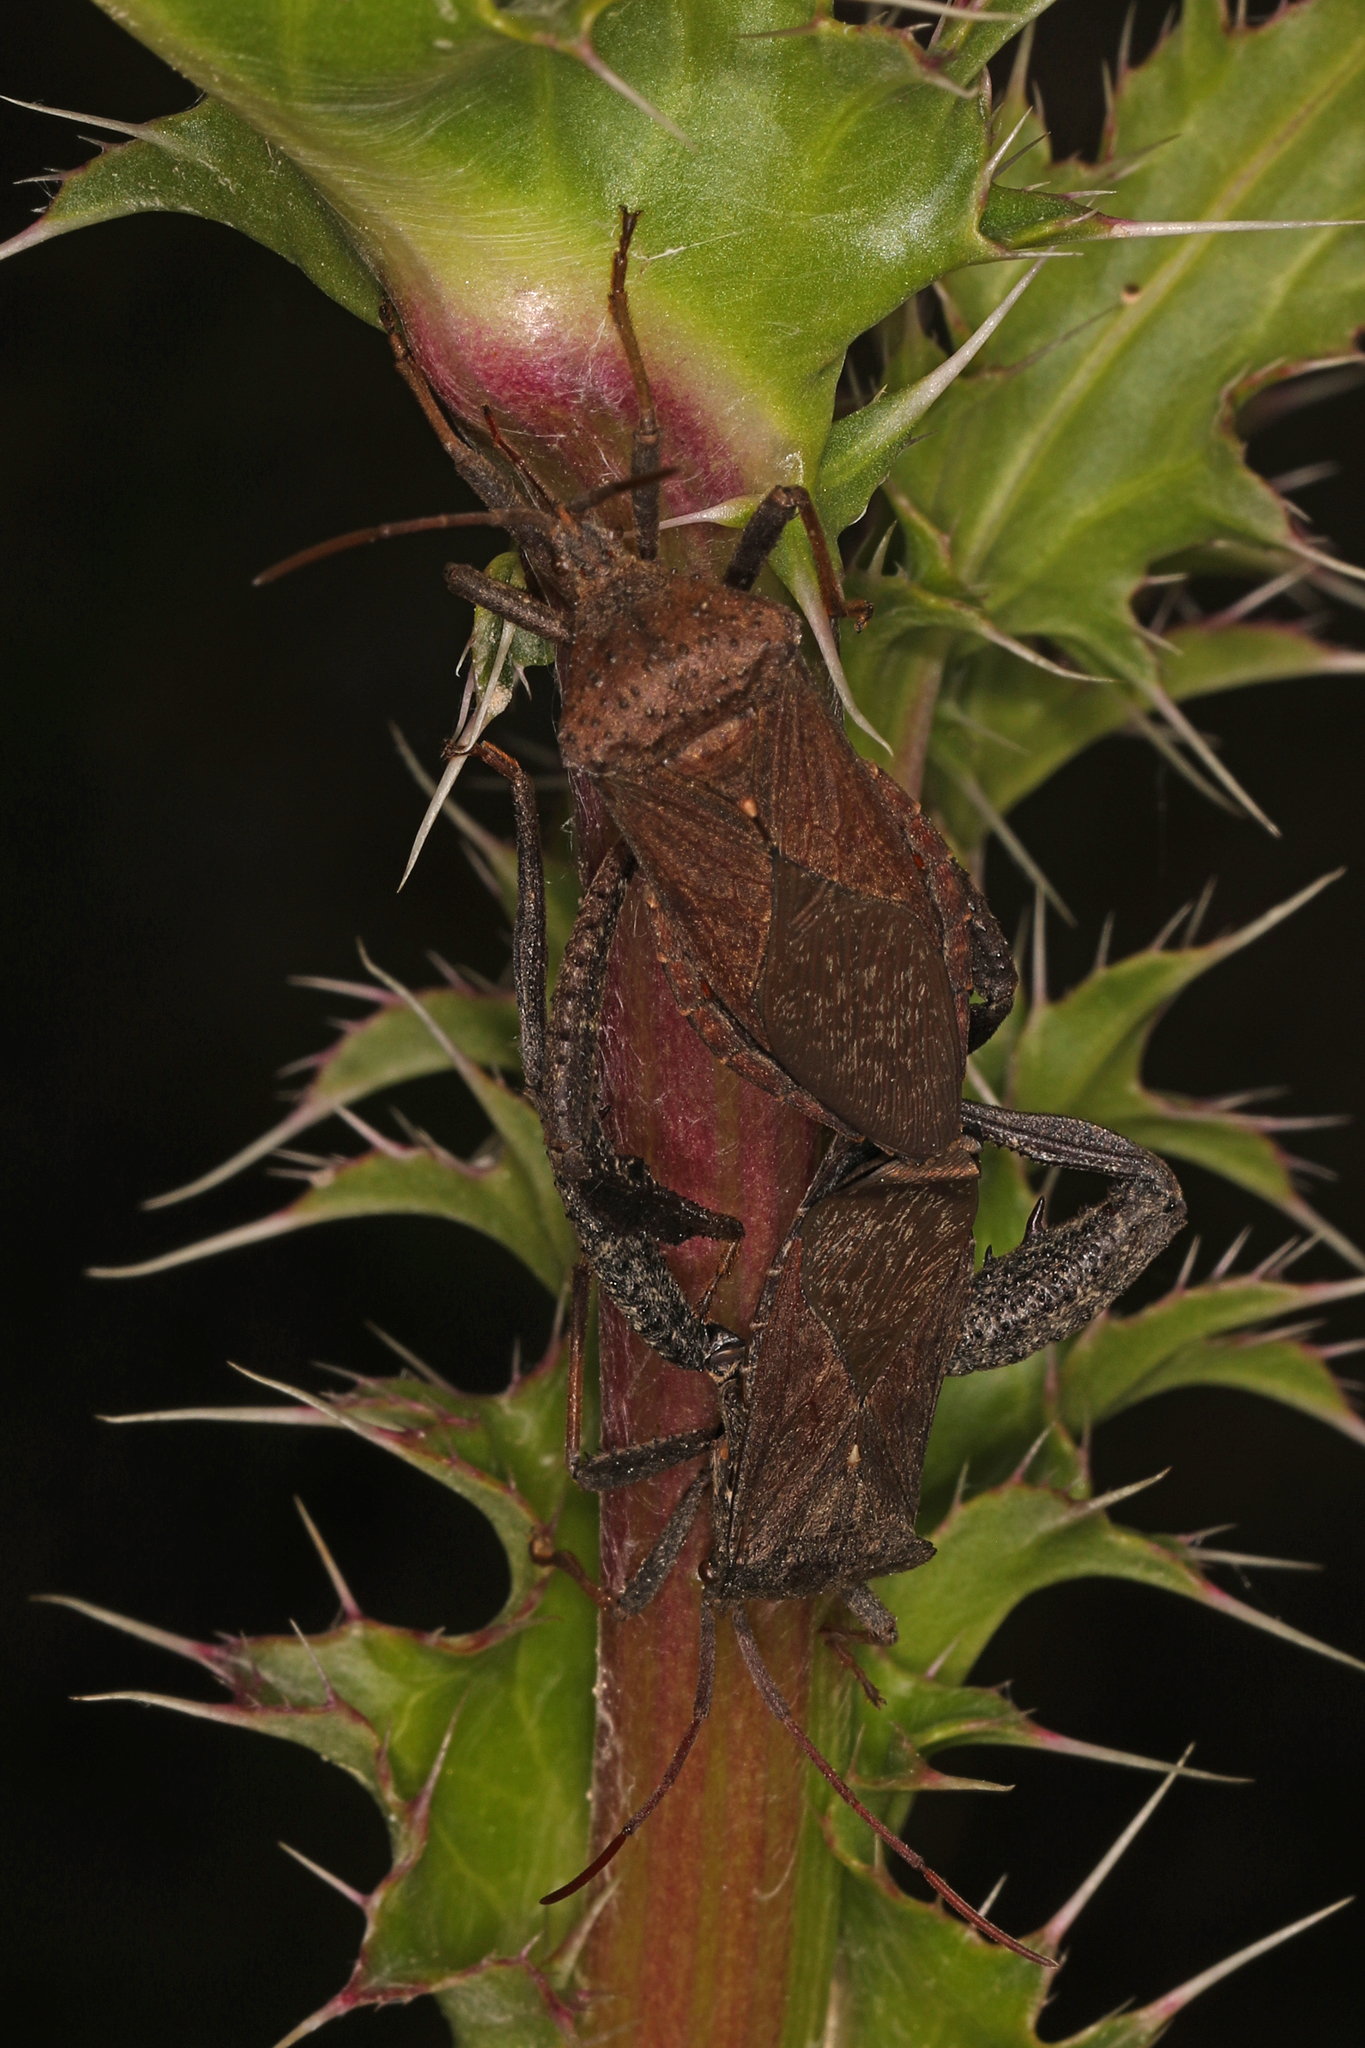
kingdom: Animalia
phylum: Arthropoda
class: Insecta
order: Hemiptera
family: Coreidae
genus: Acanthocephala
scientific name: Acanthocephala femorata
